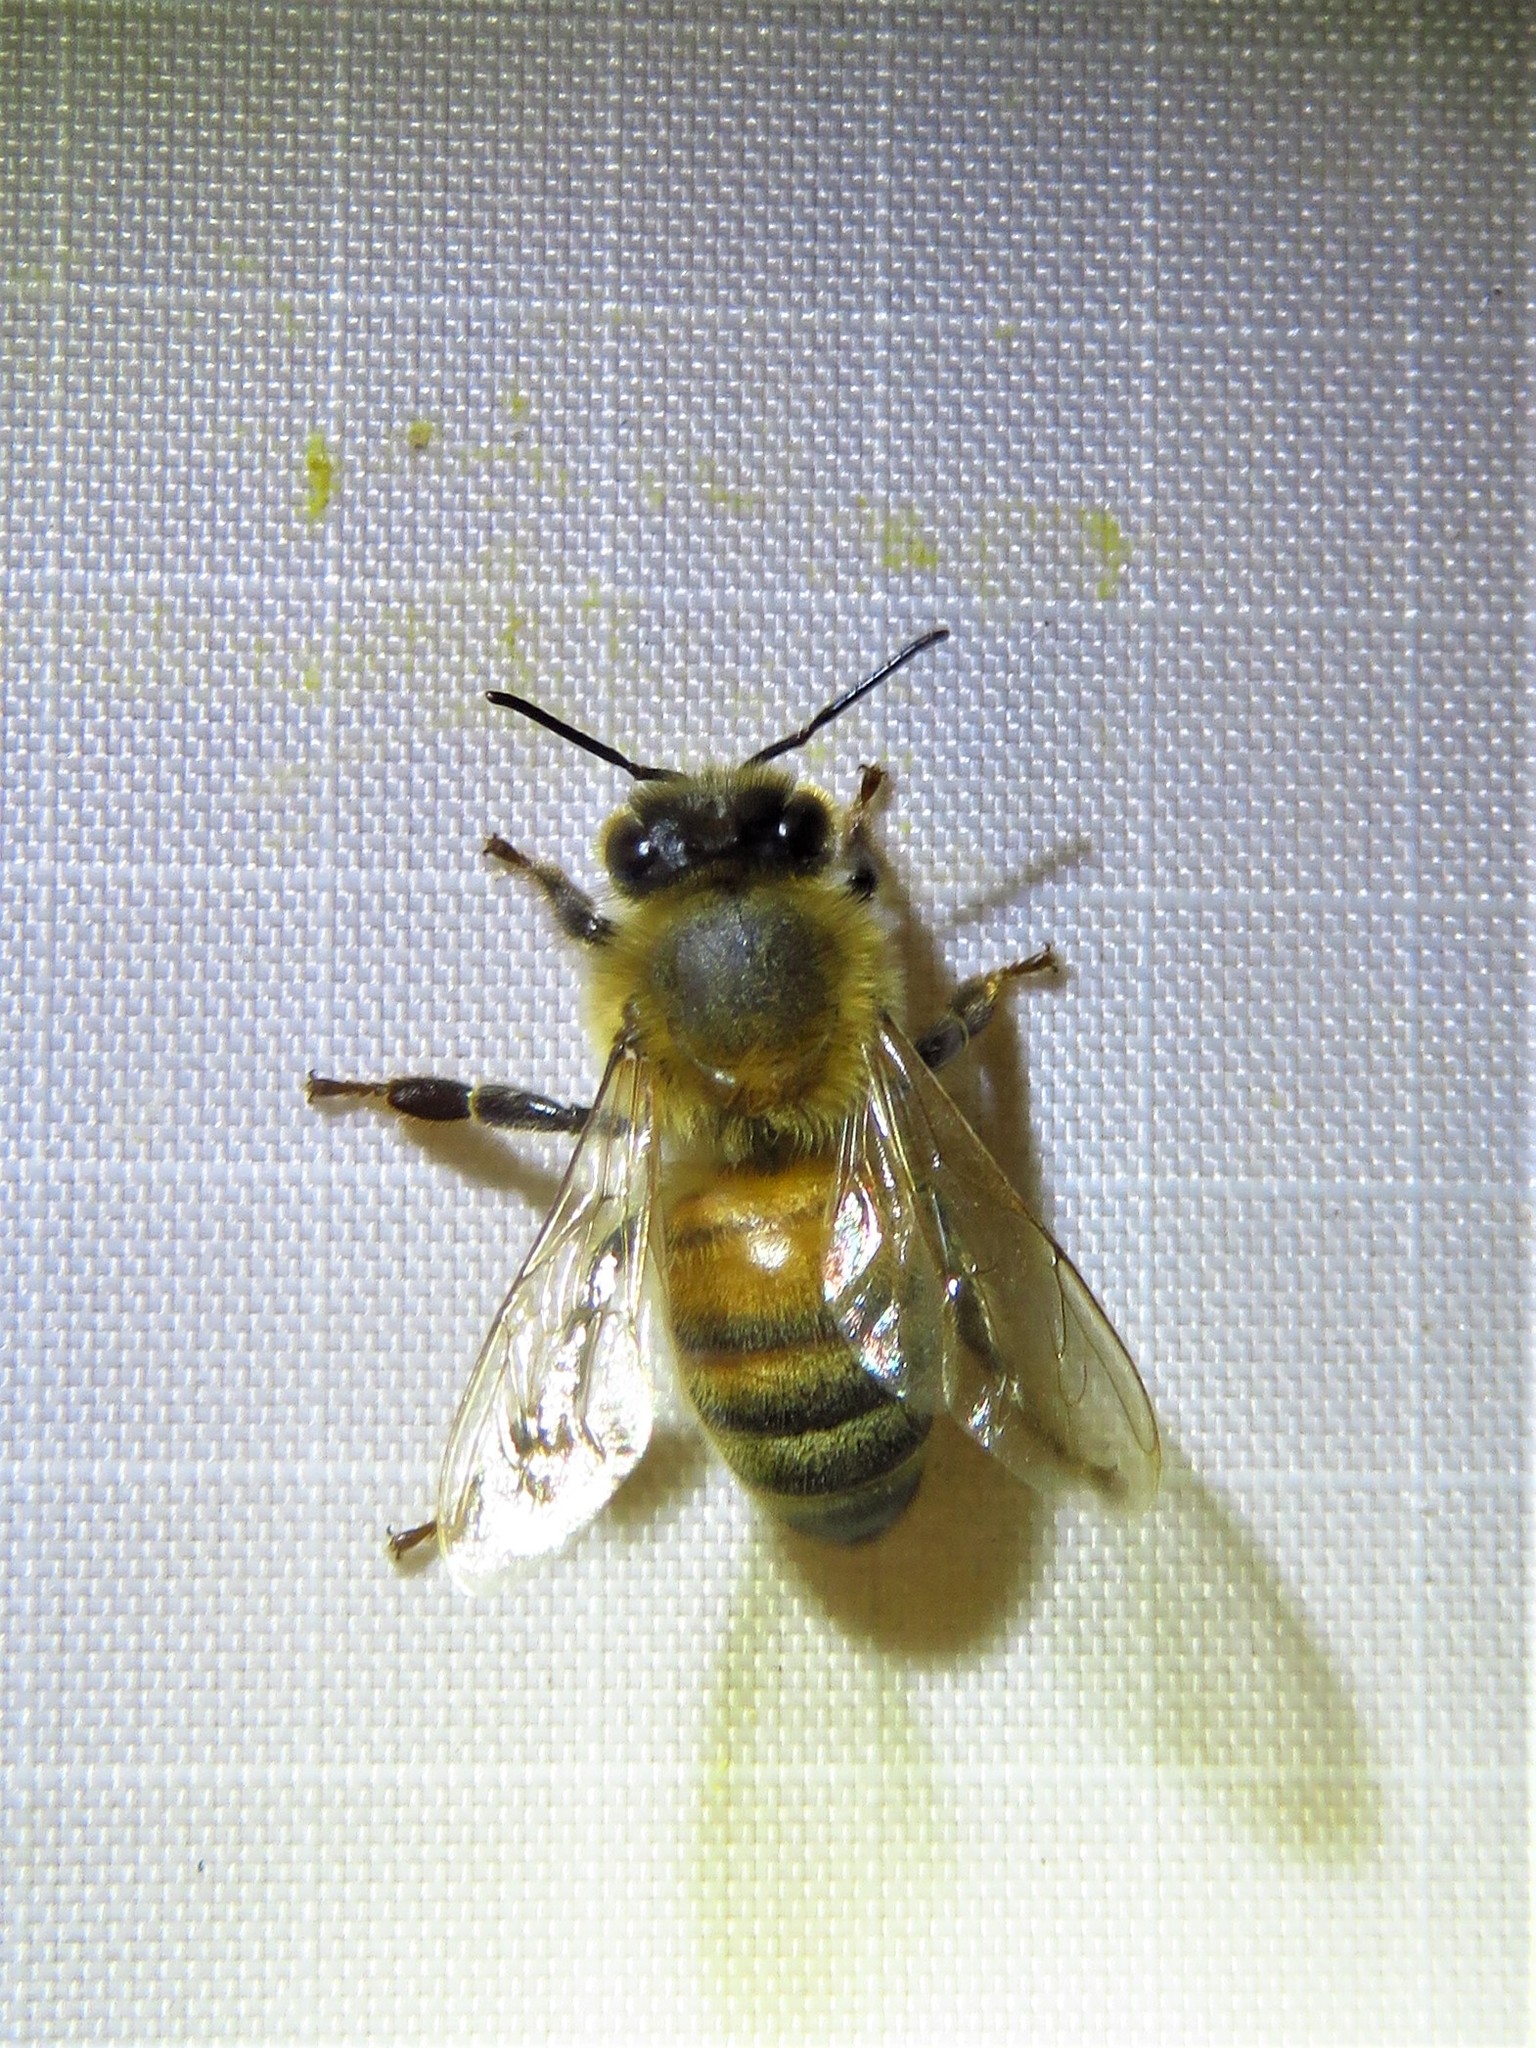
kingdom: Animalia
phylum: Arthropoda
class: Insecta
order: Hymenoptera
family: Apidae
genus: Apis
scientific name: Apis mellifera
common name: Honey bee
